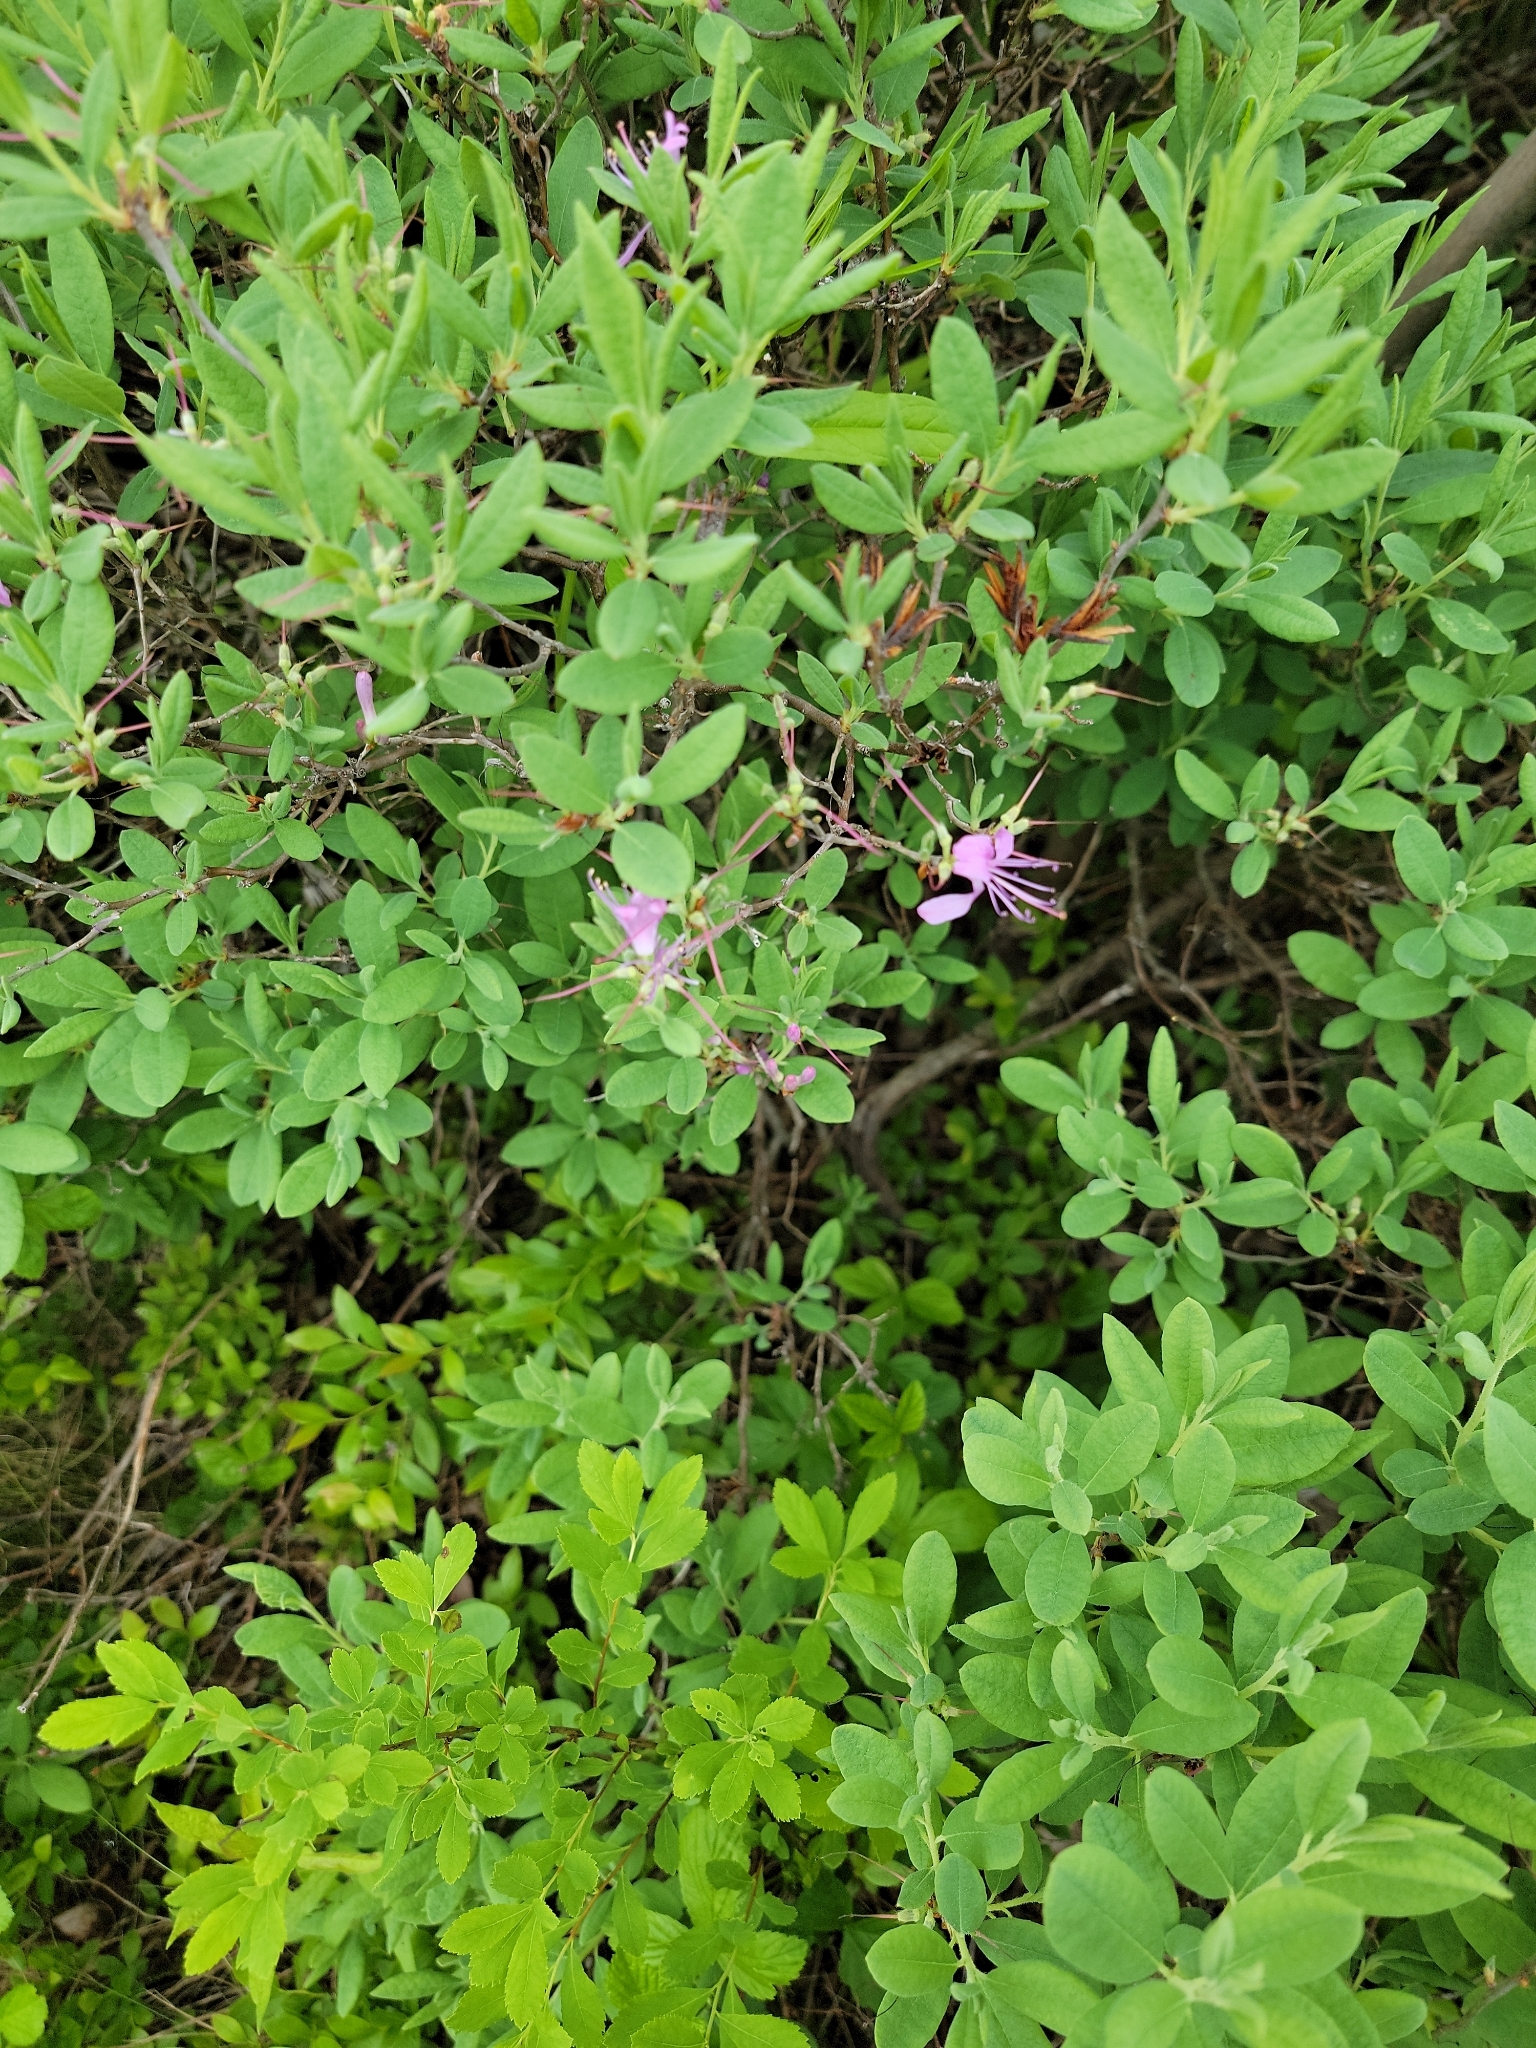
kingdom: Plantae
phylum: Tracheophyta
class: Magnoliopsida
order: Ericales
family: Ericaceae
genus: Rhododendron
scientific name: Rhododendron canadense
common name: Rhodora
